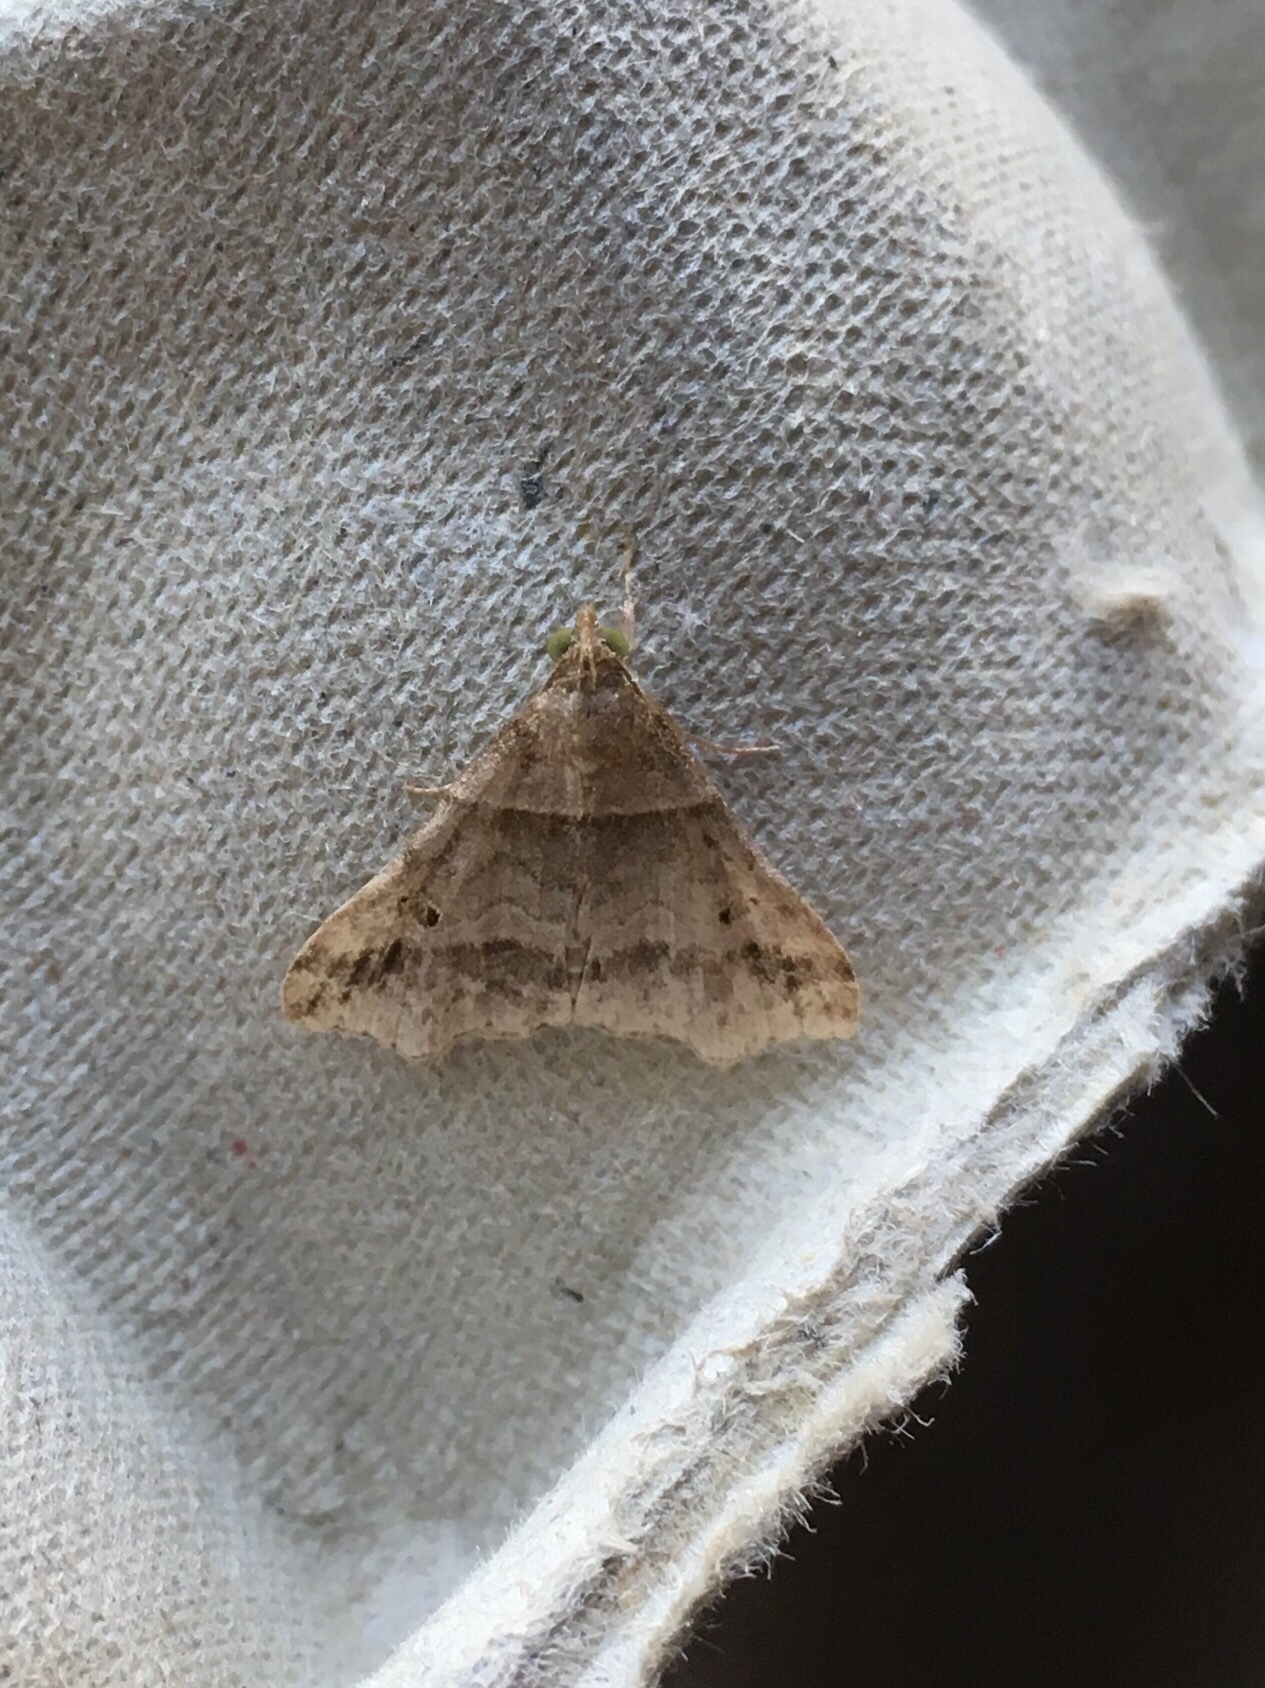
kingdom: Animalia
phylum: Arthropoda
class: Insecta
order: Lepidoptera
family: Erebidae
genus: Phaeolita
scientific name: Phaeolita pyramusalis
